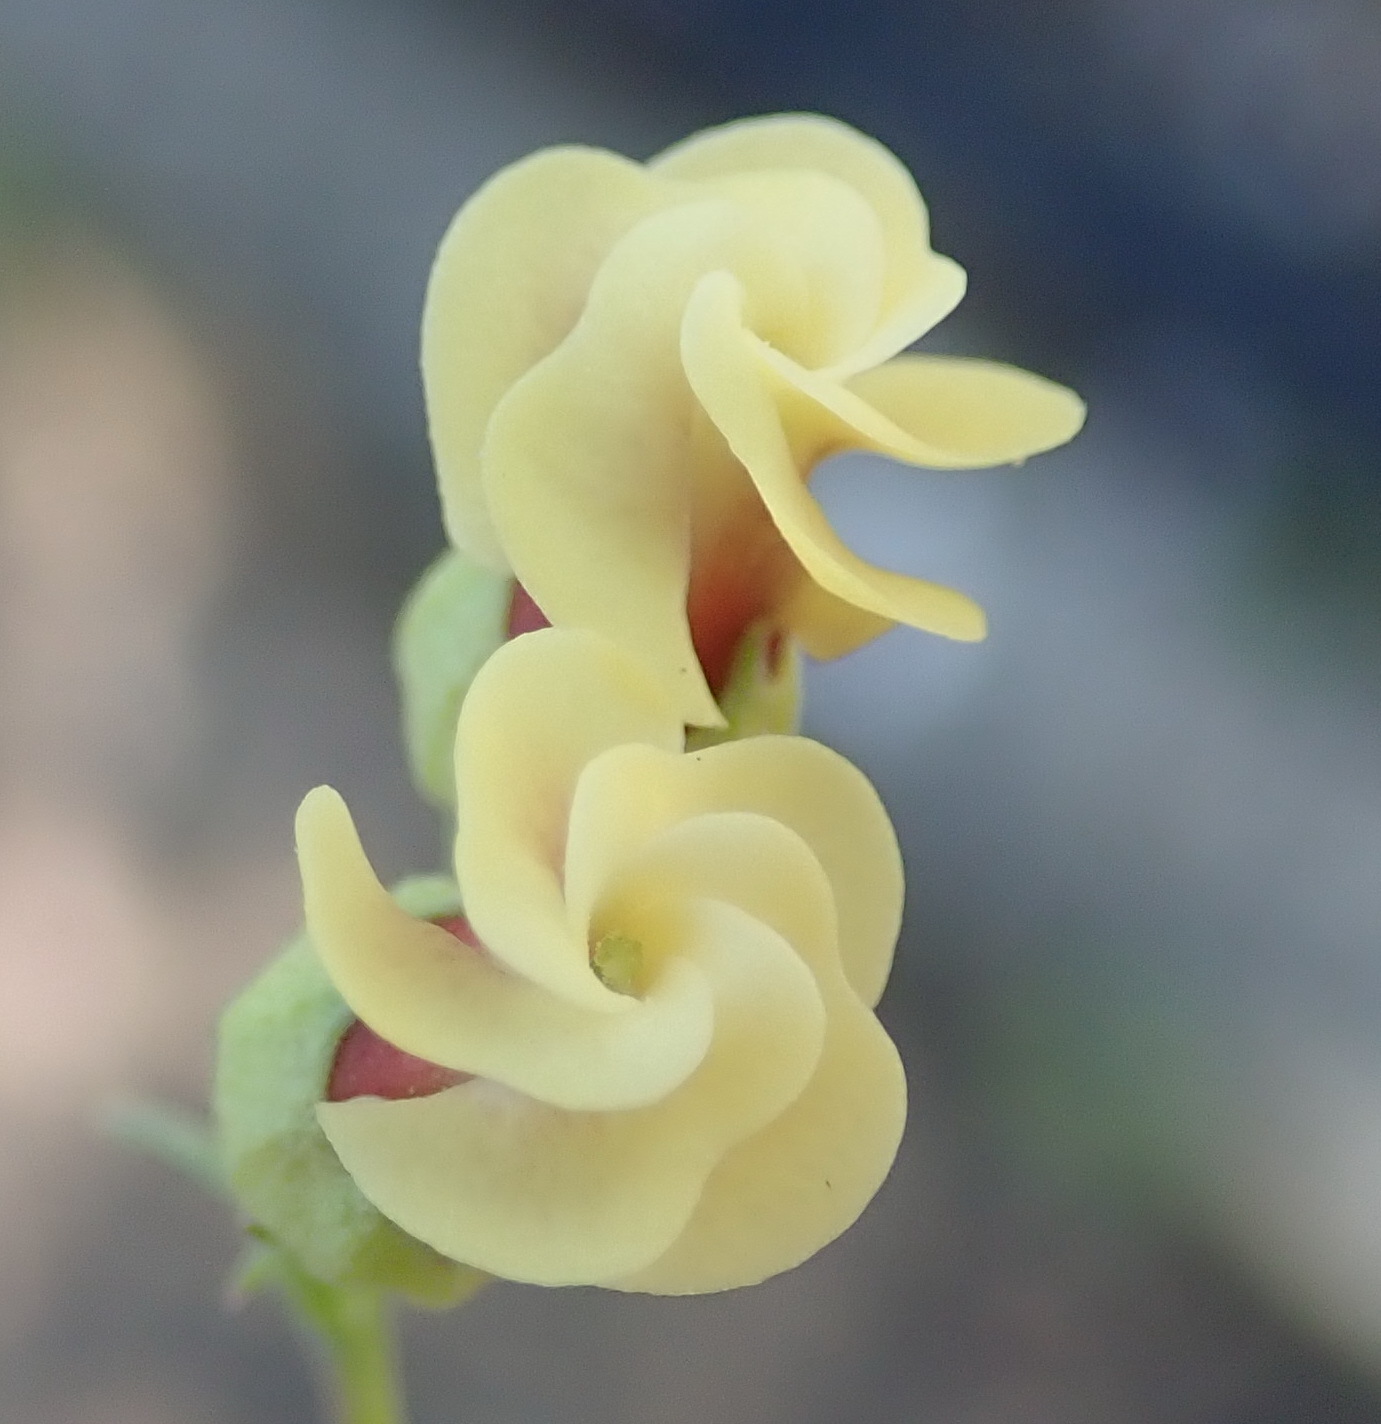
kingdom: Plantae
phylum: Tracheophyta
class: Magnoliopsida
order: Malvales
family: Malvaceae
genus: Hermannia
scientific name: Hermannia gracilis
